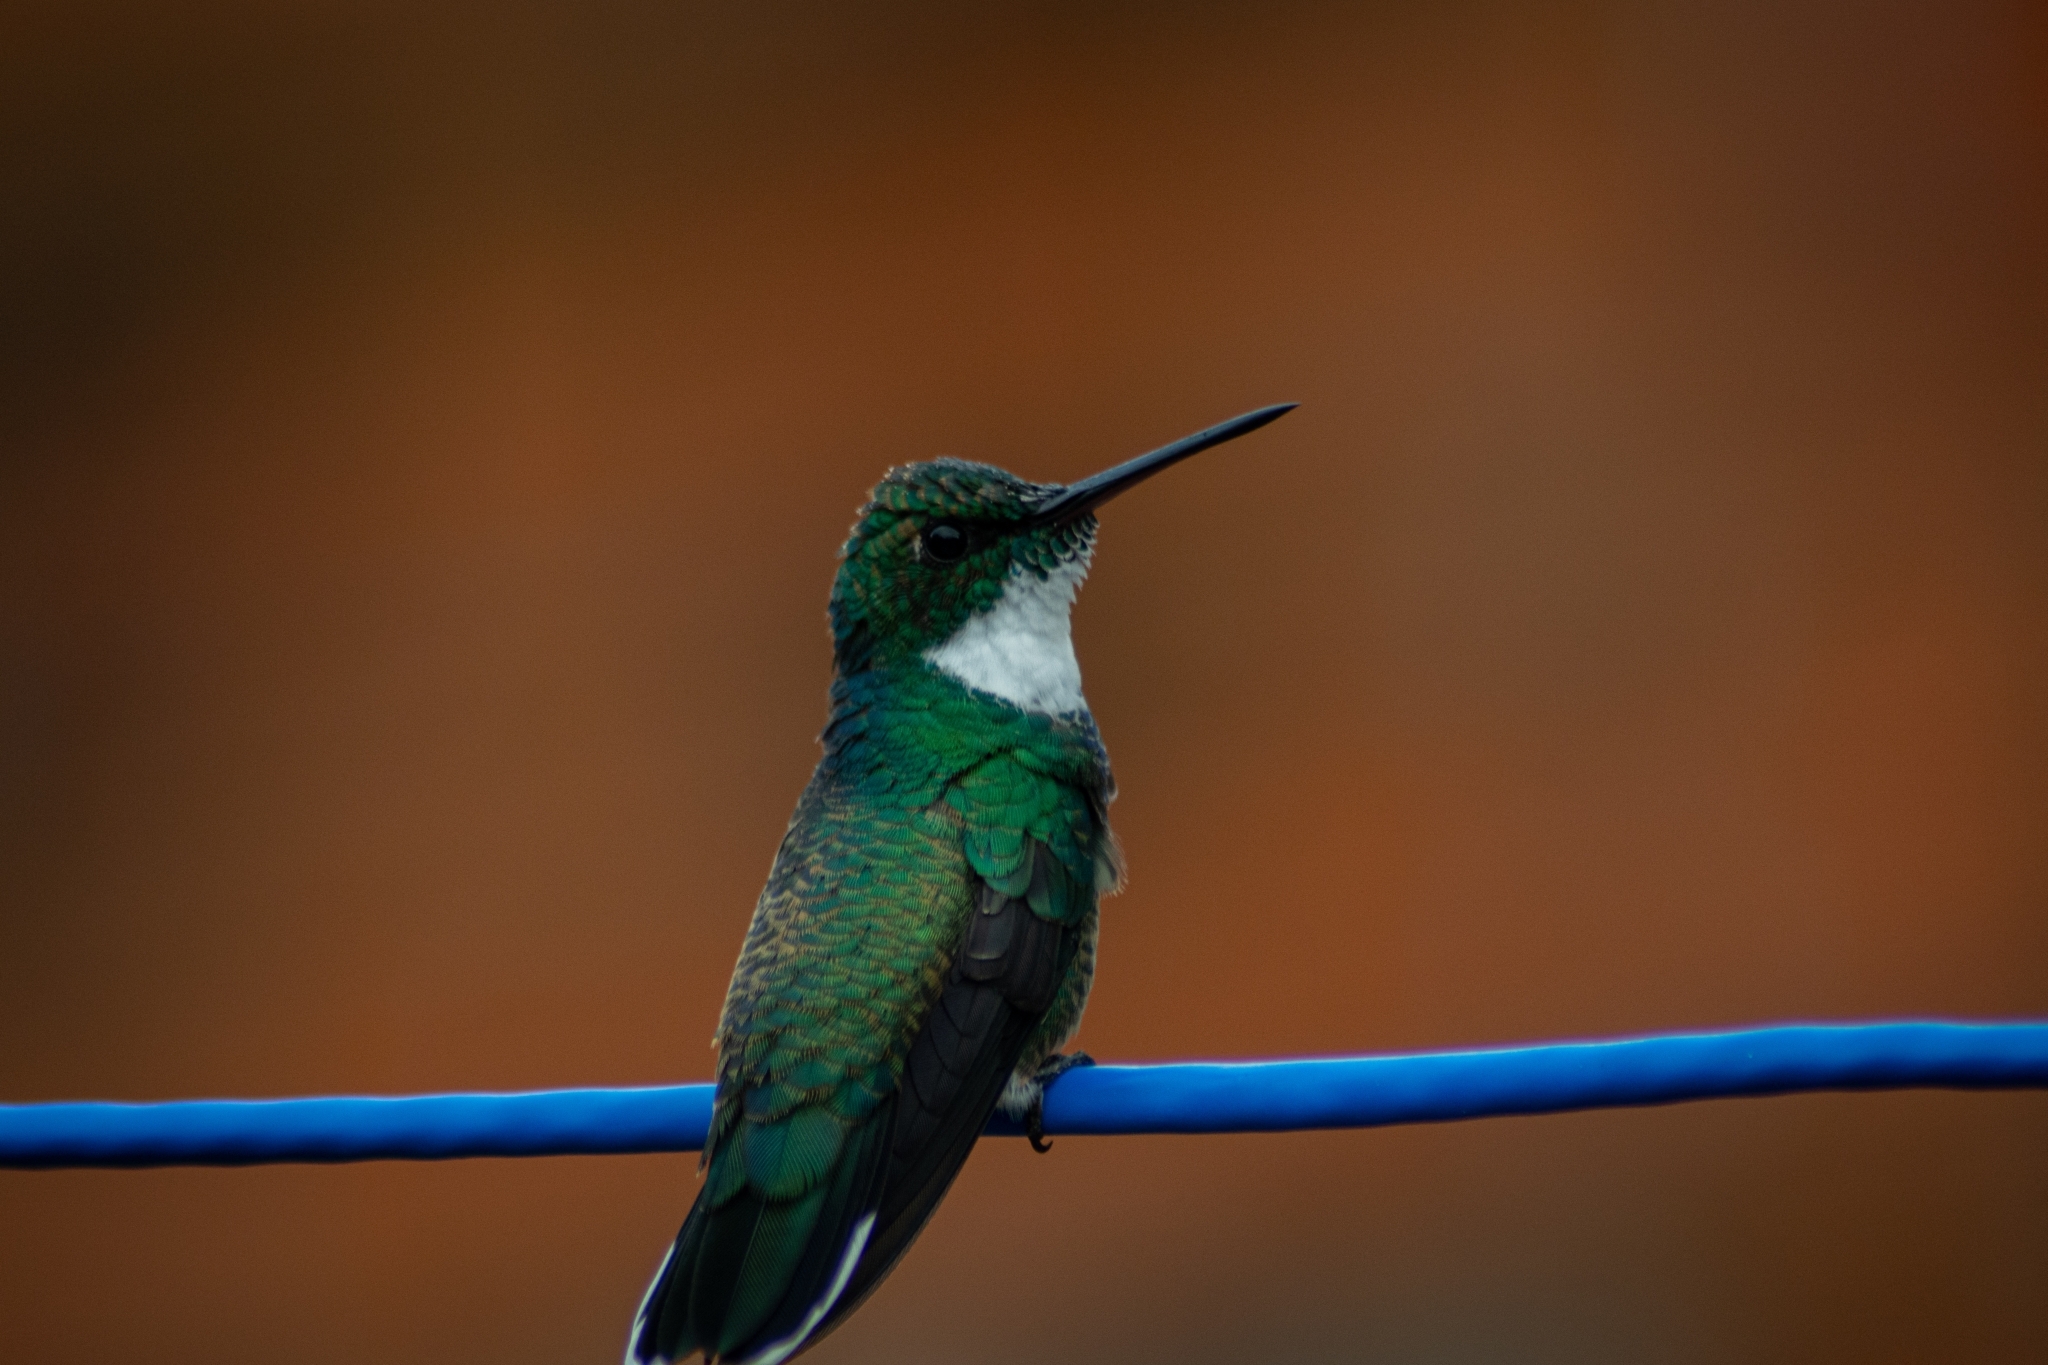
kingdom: Animalia
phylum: Chordata
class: Aves
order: Apodiformes
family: Trochilidae
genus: Leucochloris
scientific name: Leucochloris albicollis
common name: White-throated hummingbird
